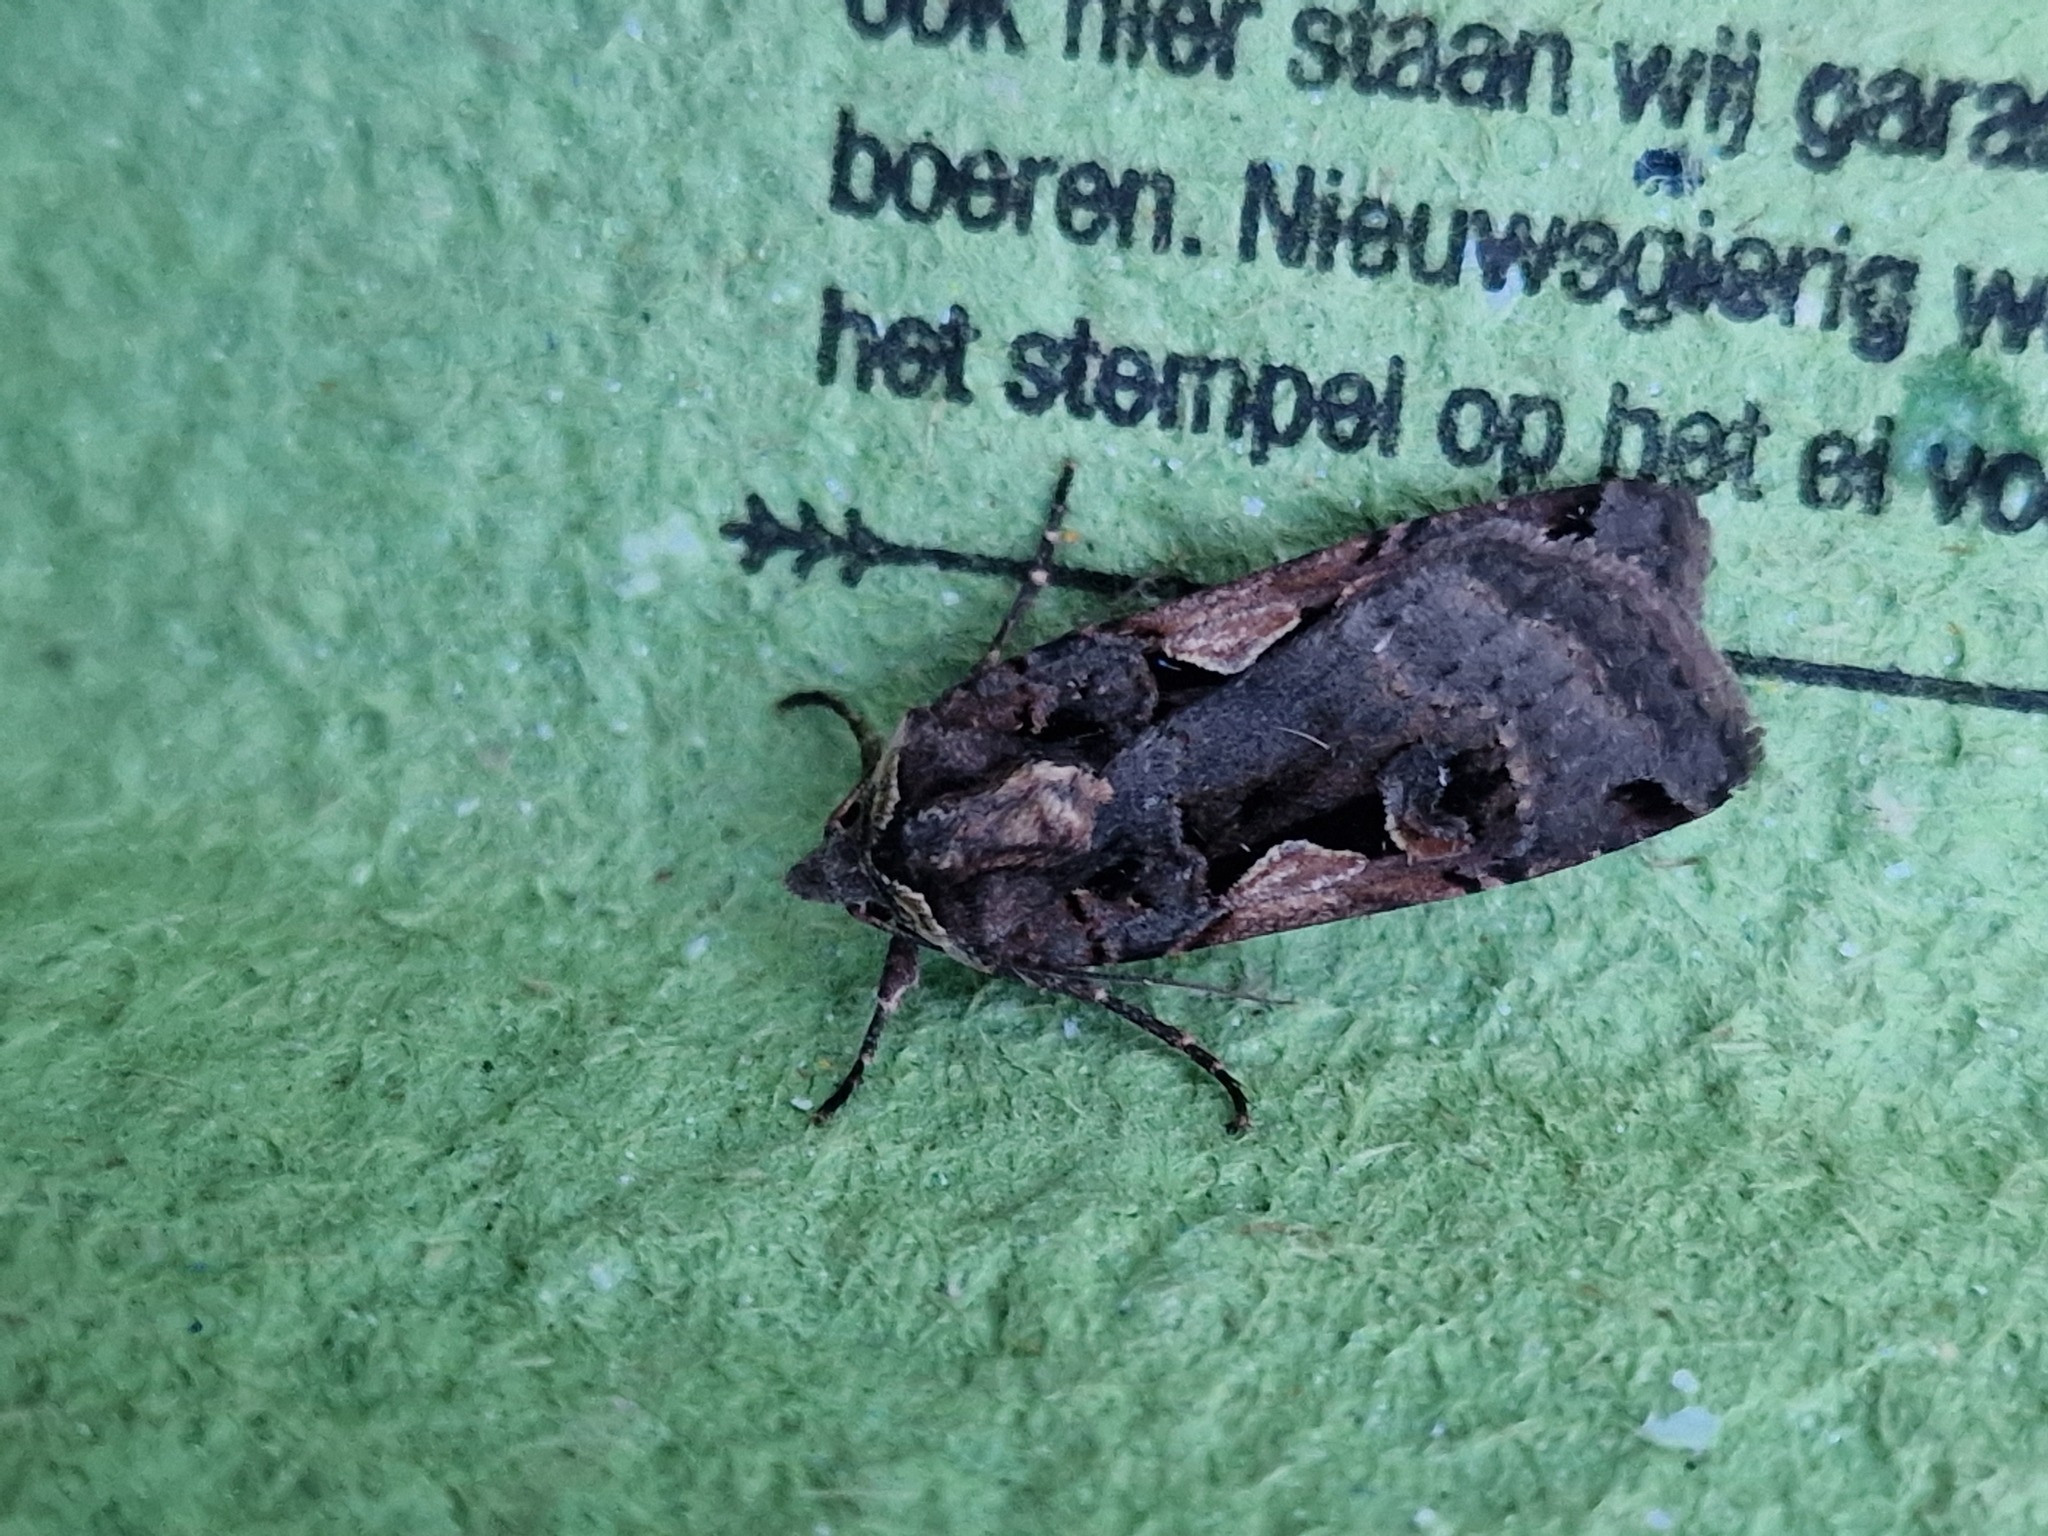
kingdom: Animalia
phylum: Arthropoda
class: Insecta
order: Lepidoptera
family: Noctuidae
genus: Xestia
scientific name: Xestia c-nigrum
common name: Setaceous hebrew character
